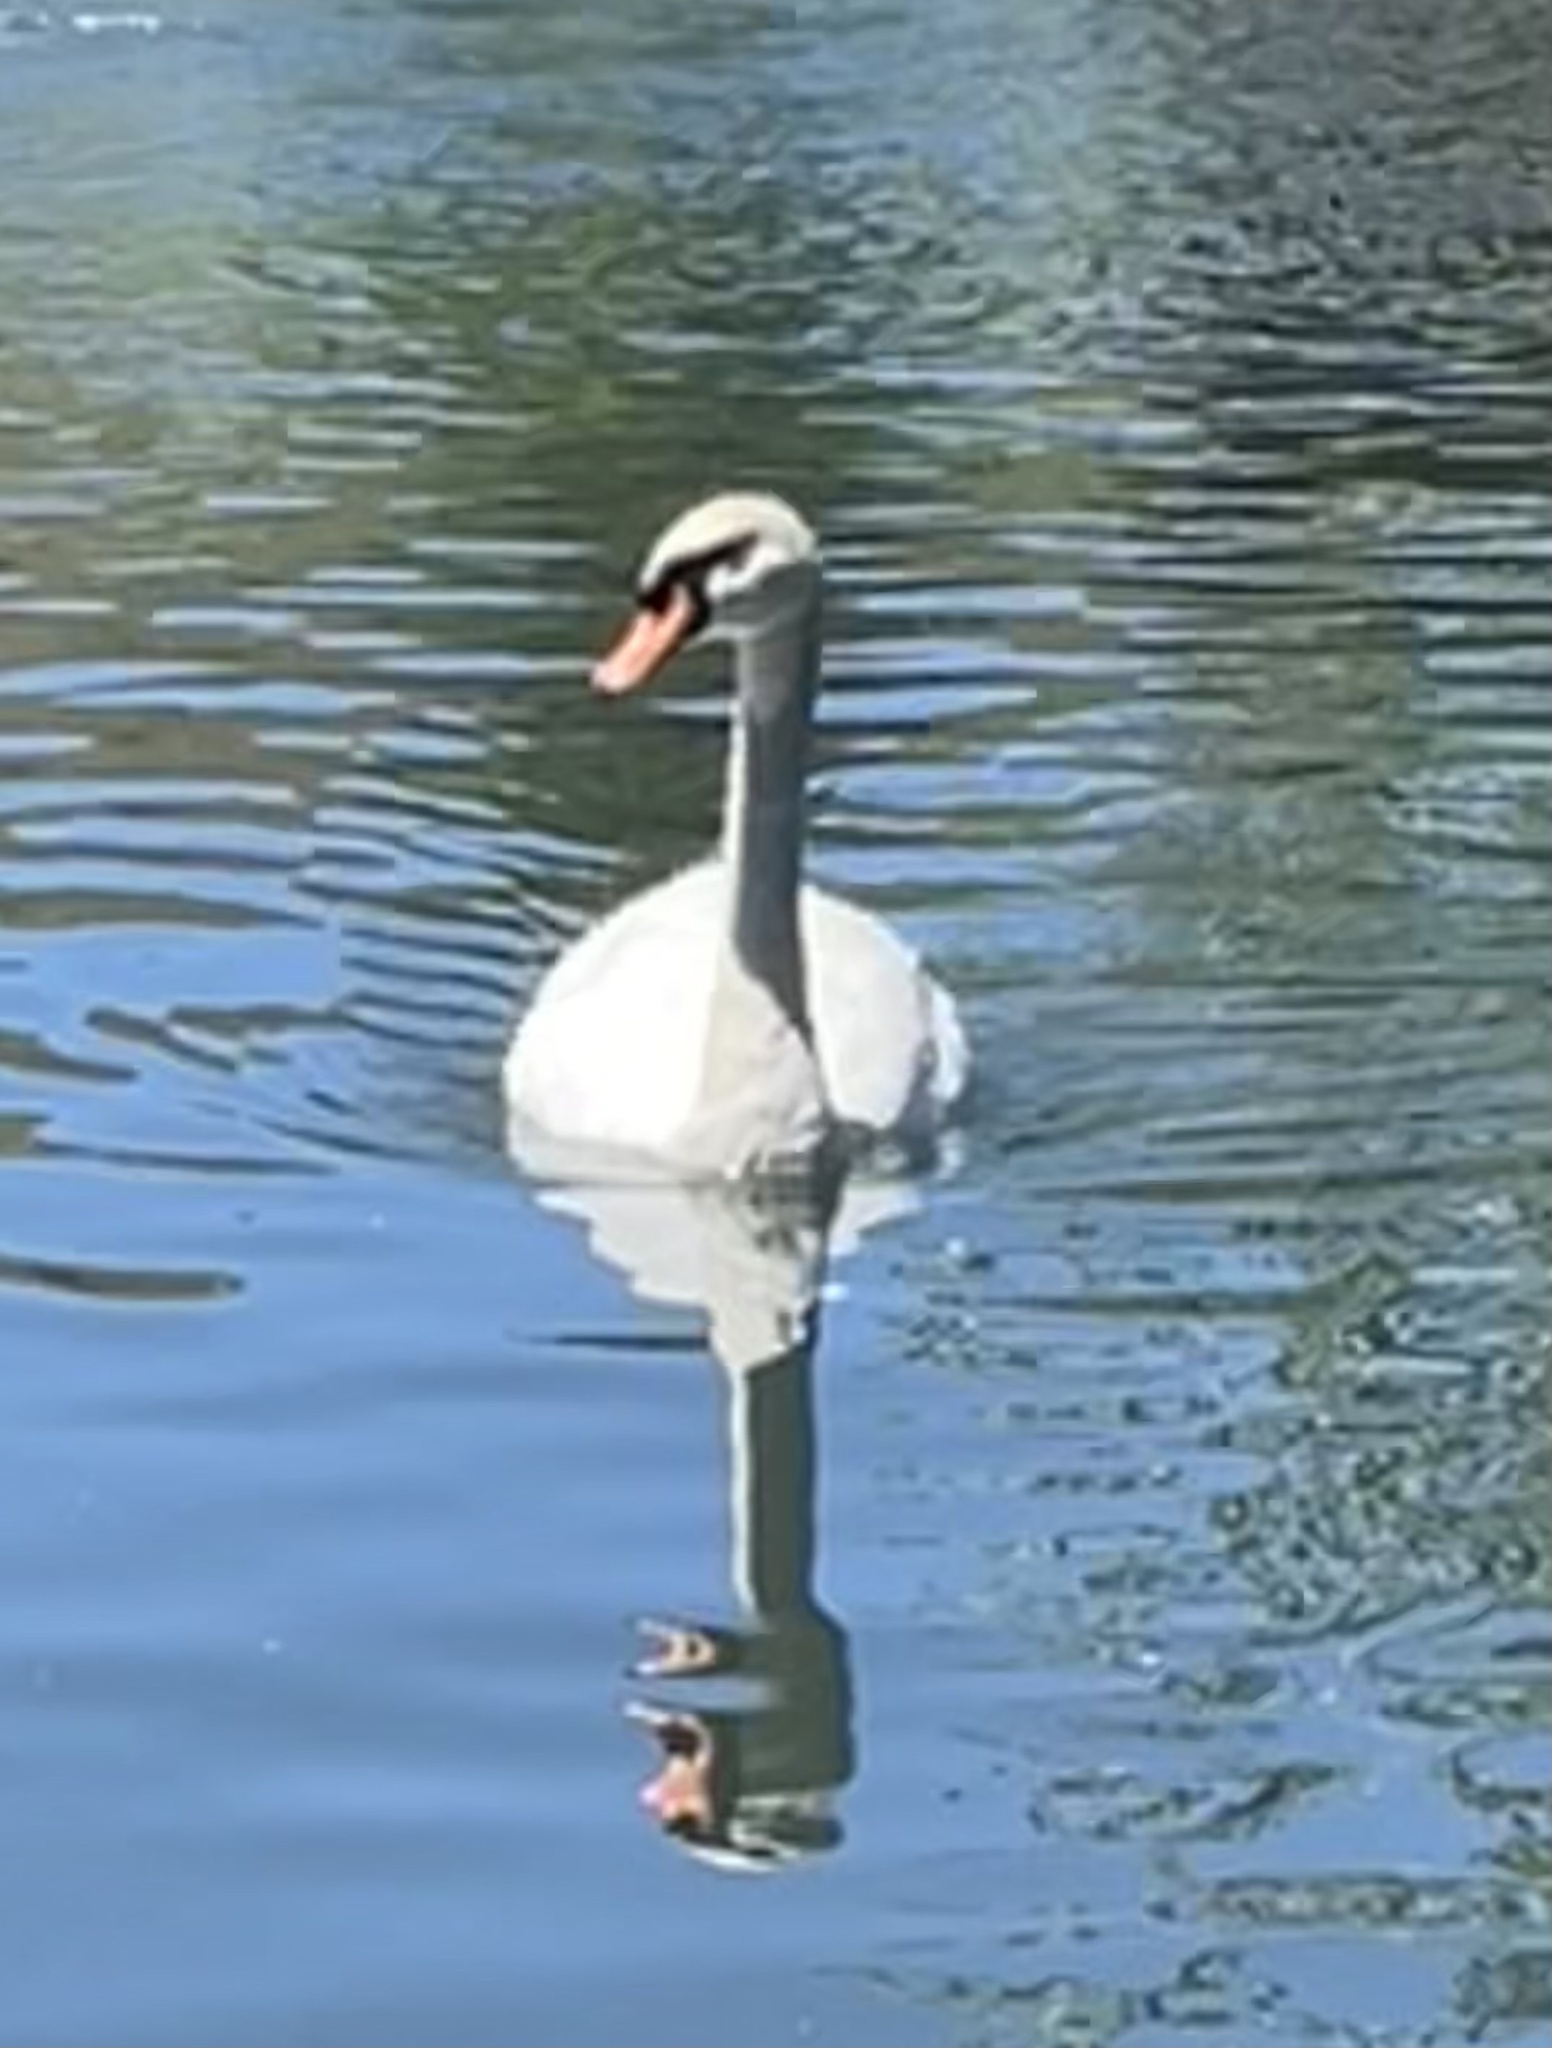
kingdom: Animalia
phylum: Chordata
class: Aves
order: Anseriformes
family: Anatidae
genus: Cygnus
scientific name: Cygnus olor
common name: Mute swan
